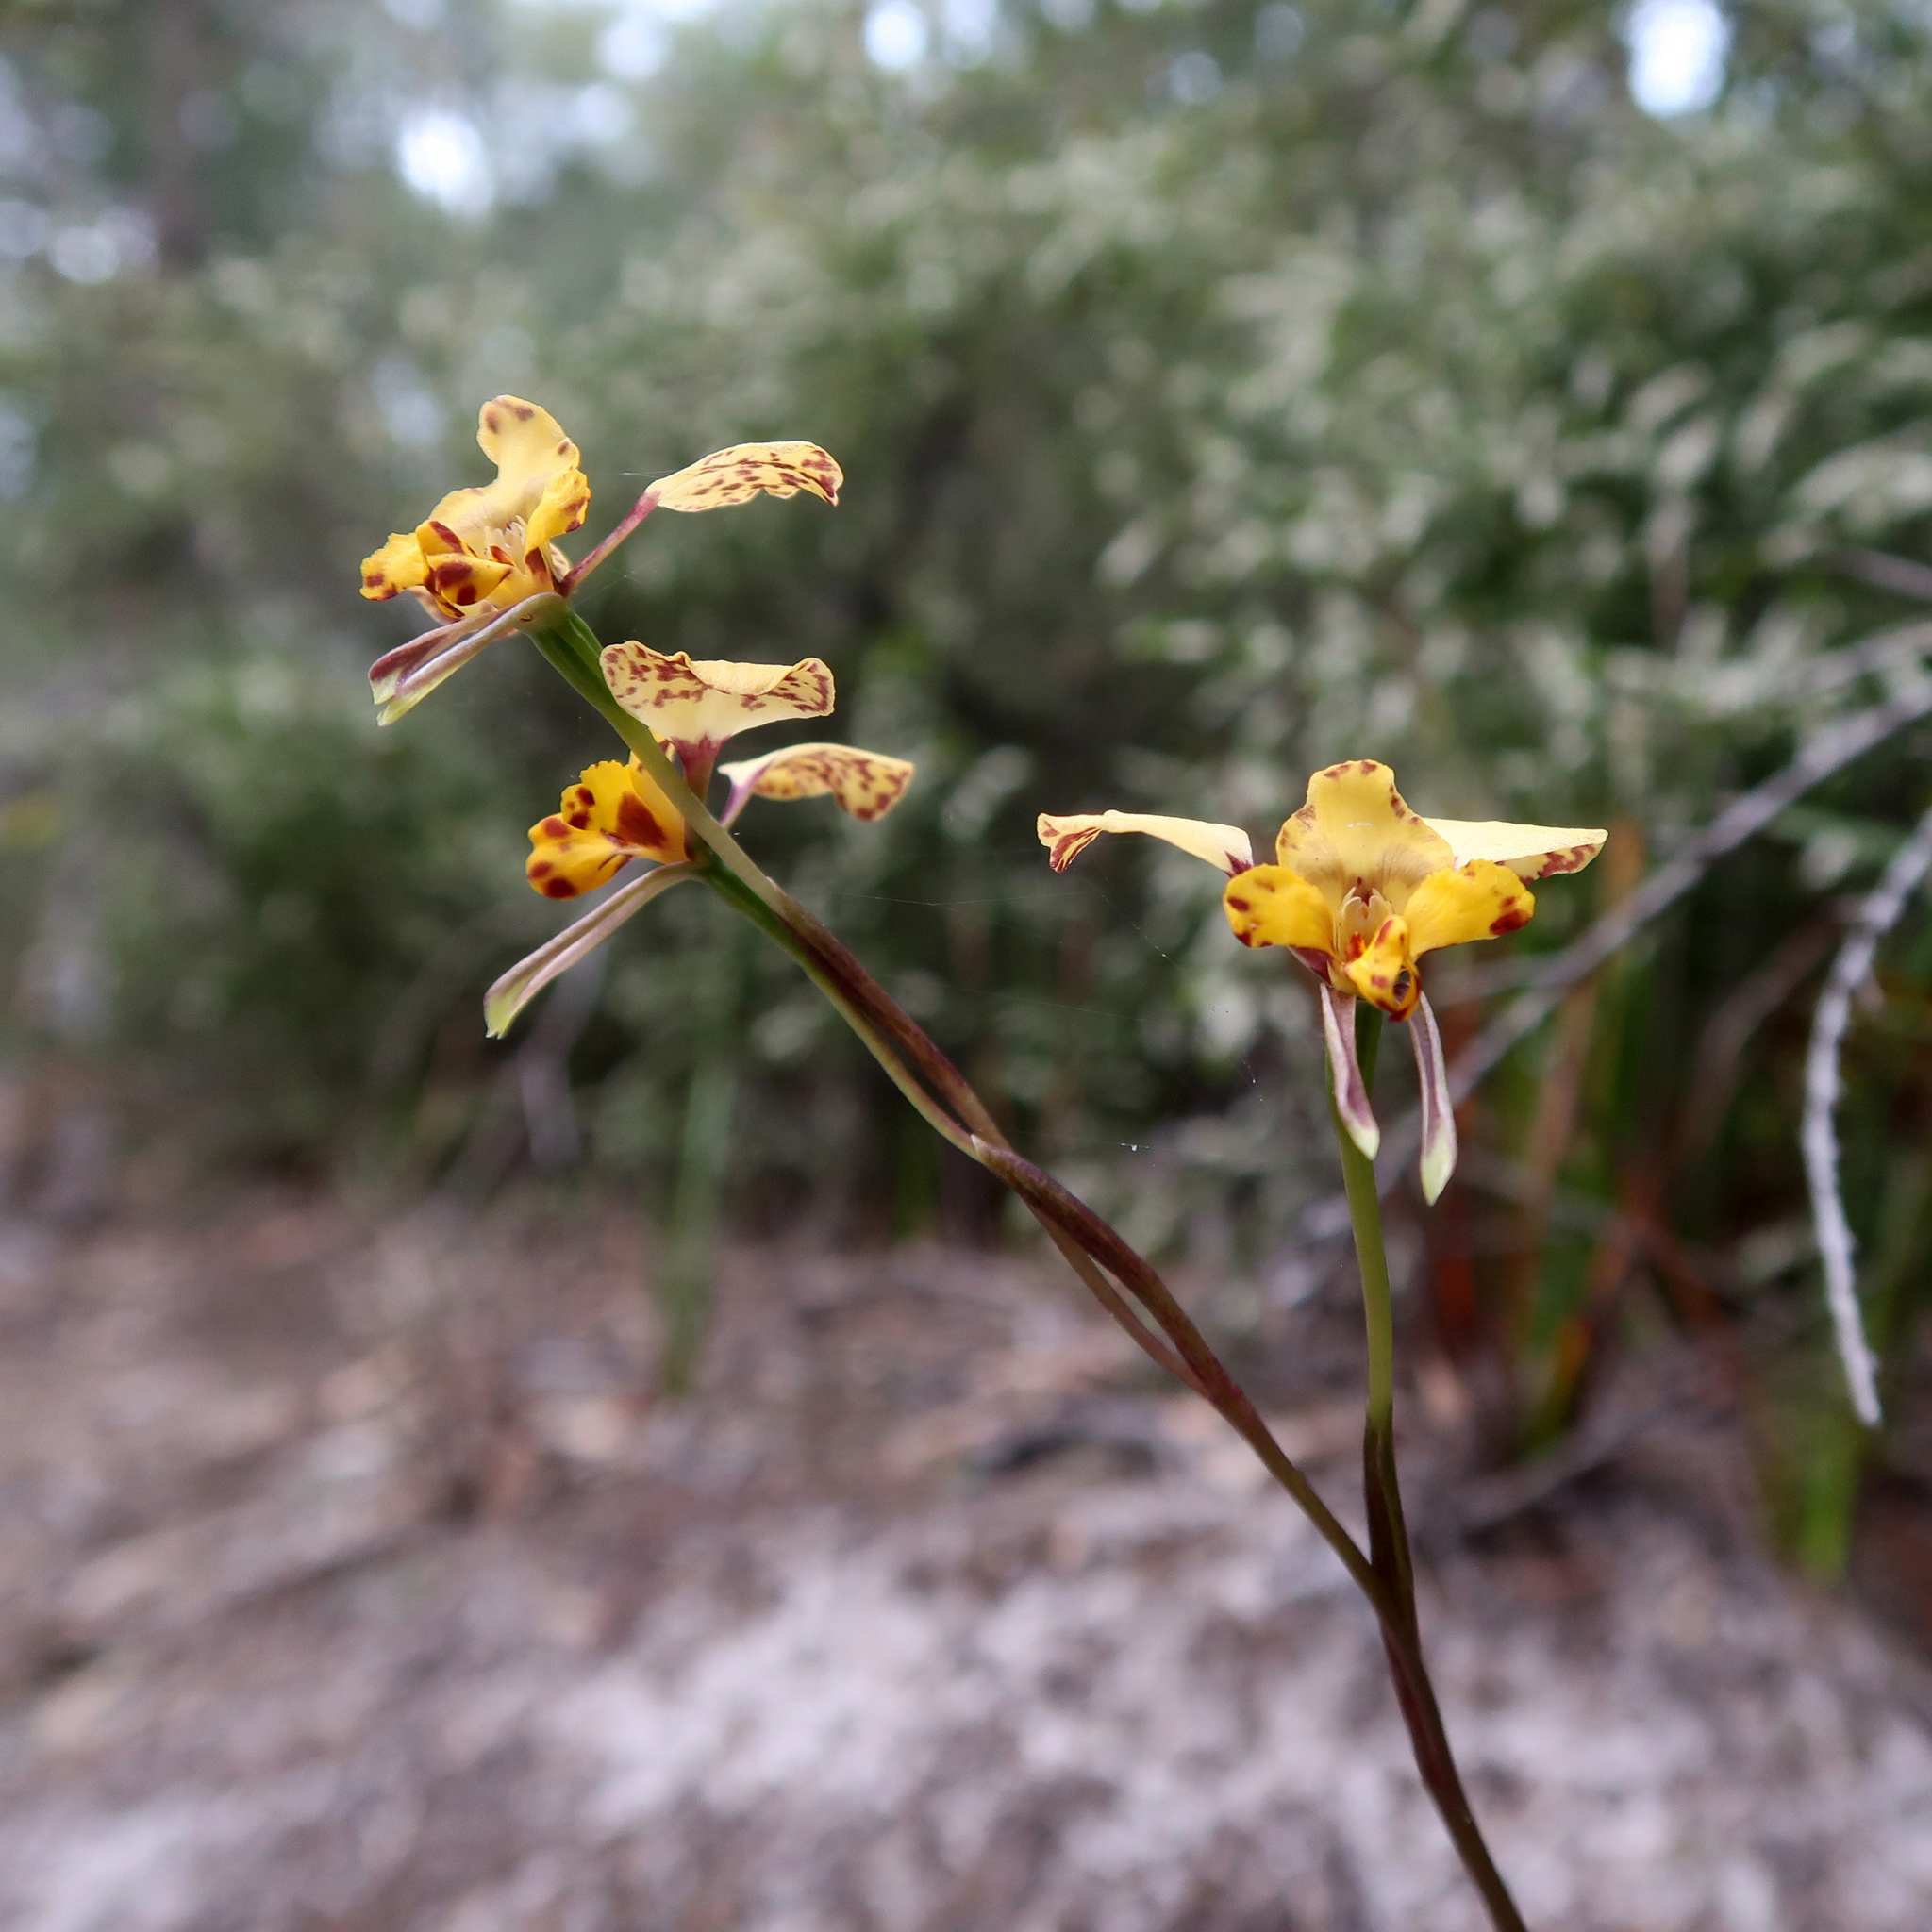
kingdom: Plantae
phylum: Tracheophyta
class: Liliopsida
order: Asparagales
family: Orchidaceae
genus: Diuris
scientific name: Diuris pardina
